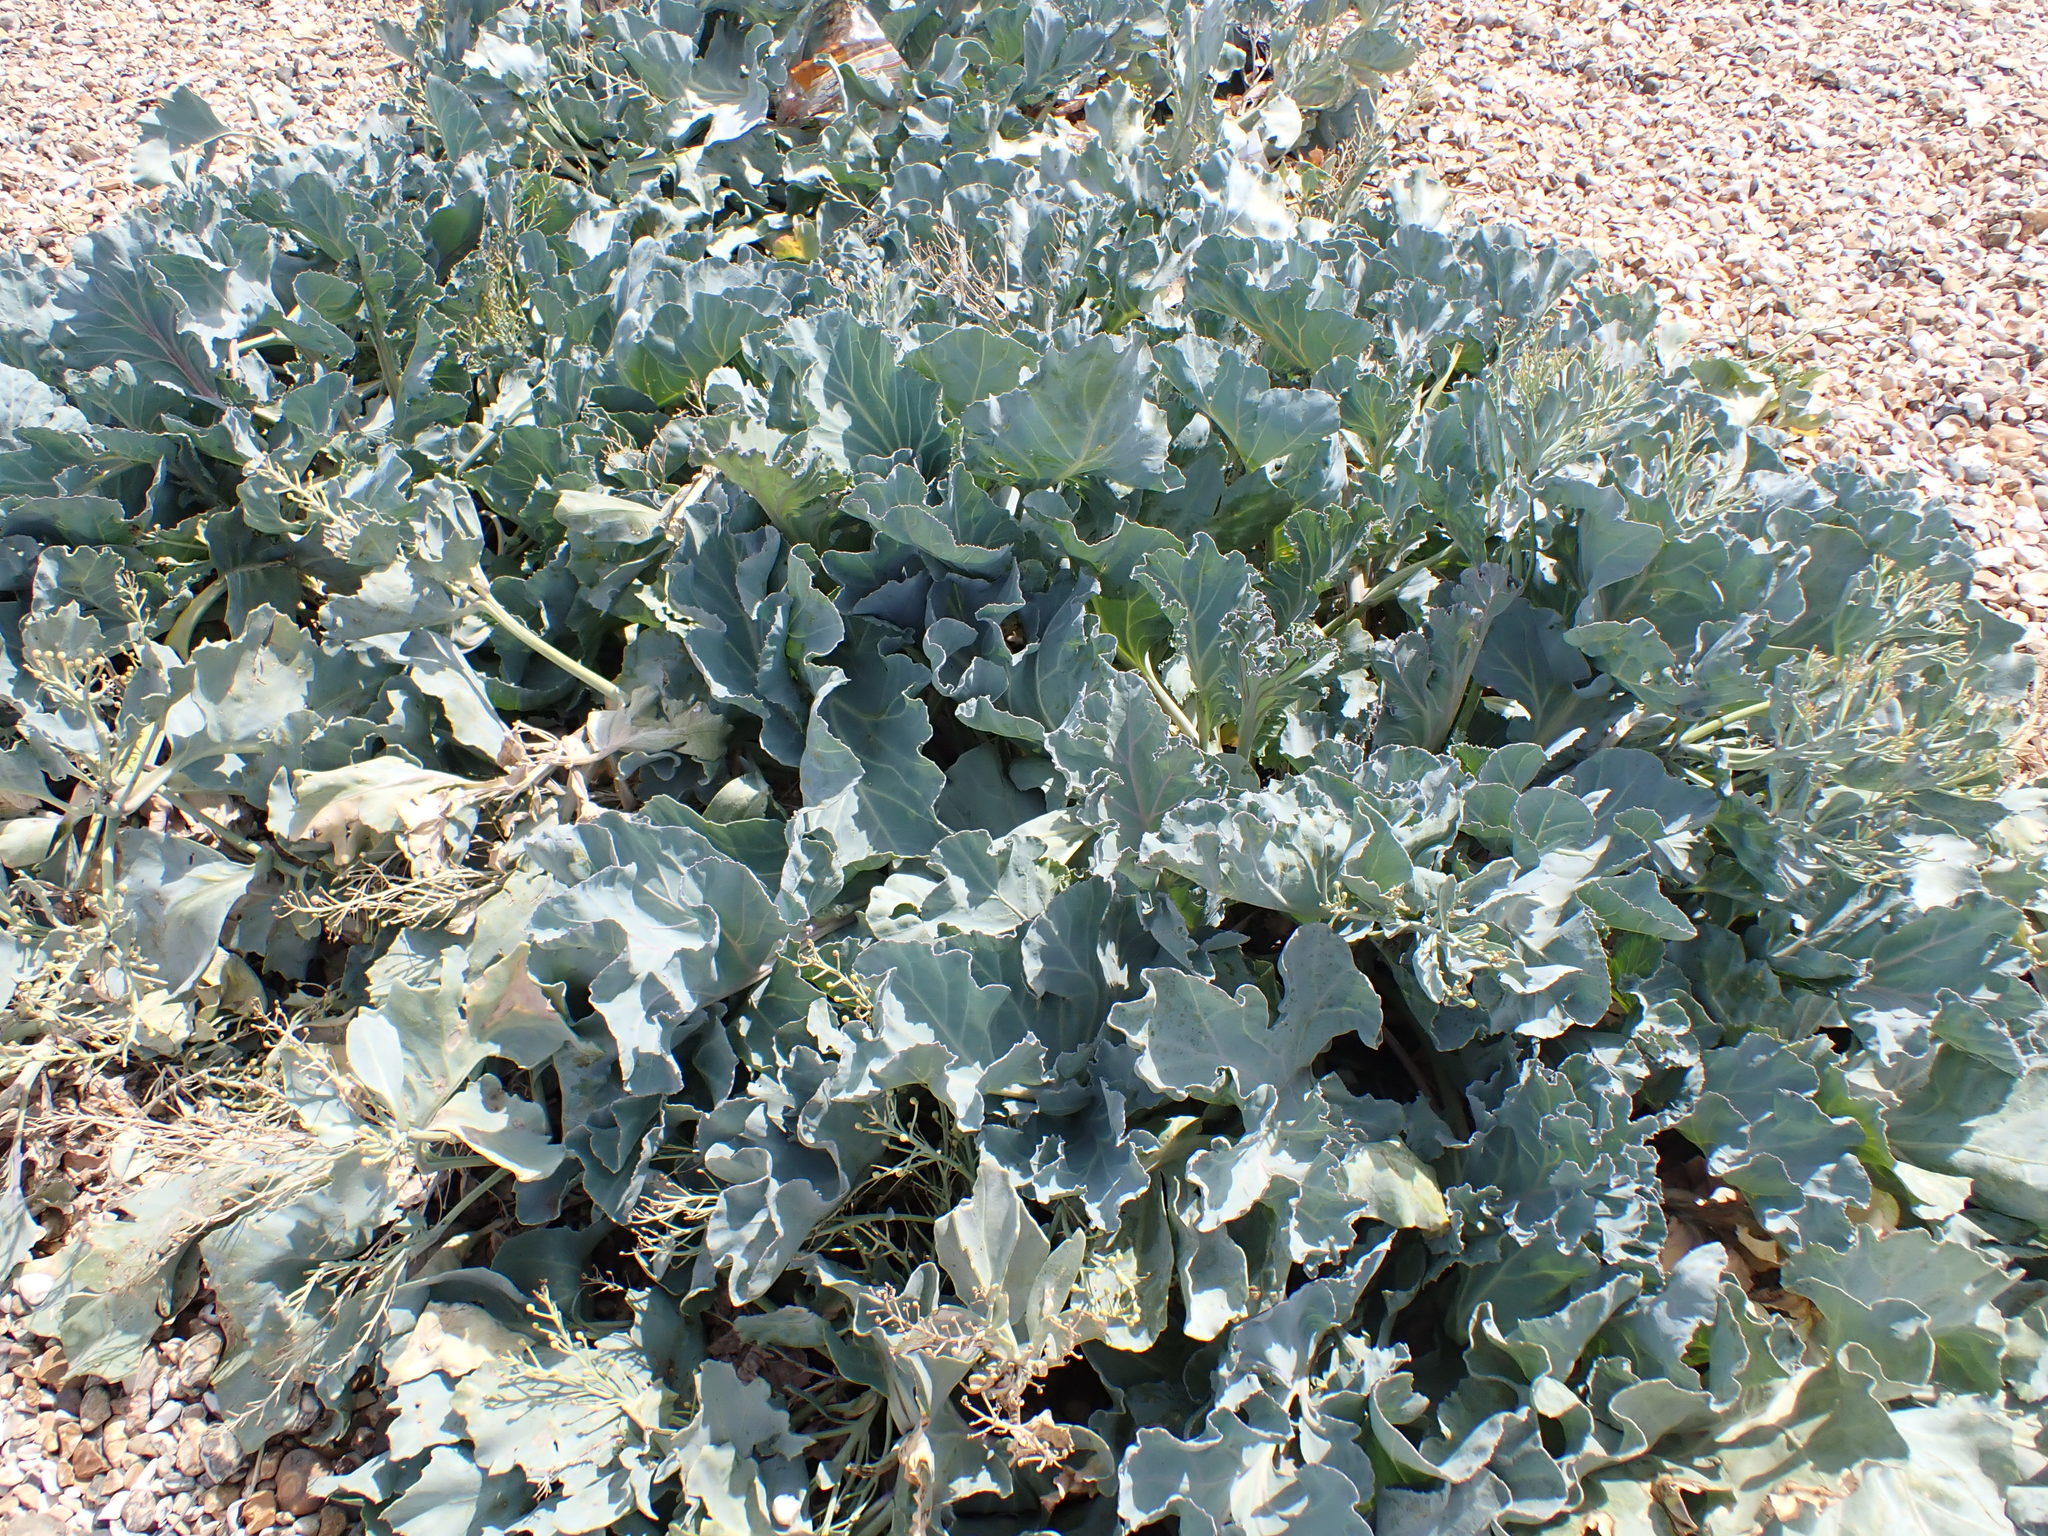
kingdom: Plantae
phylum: Tracheophyta
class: Magnoliopsida
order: Brassicales
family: Brassicaceae
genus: Crambe
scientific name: Crambe maritima
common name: Sea-kale
